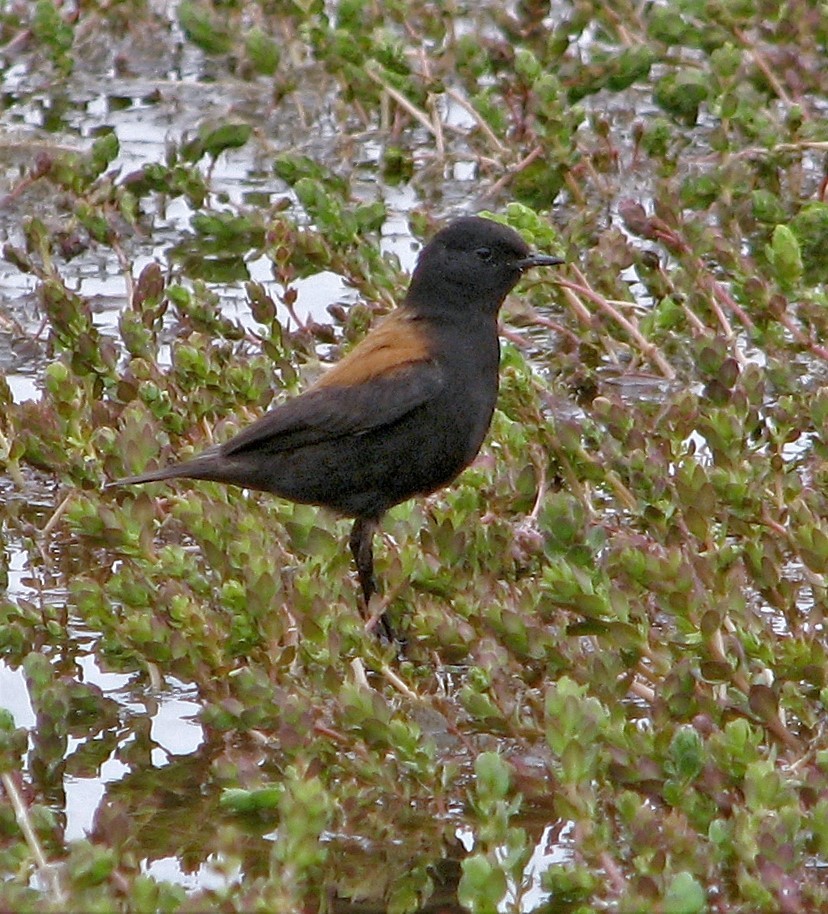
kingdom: Animalia
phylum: Chordata
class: Aves
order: Passeriformes
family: Tyrannidae
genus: Lessonia
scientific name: Lessonia rufa
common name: Austral negrito
